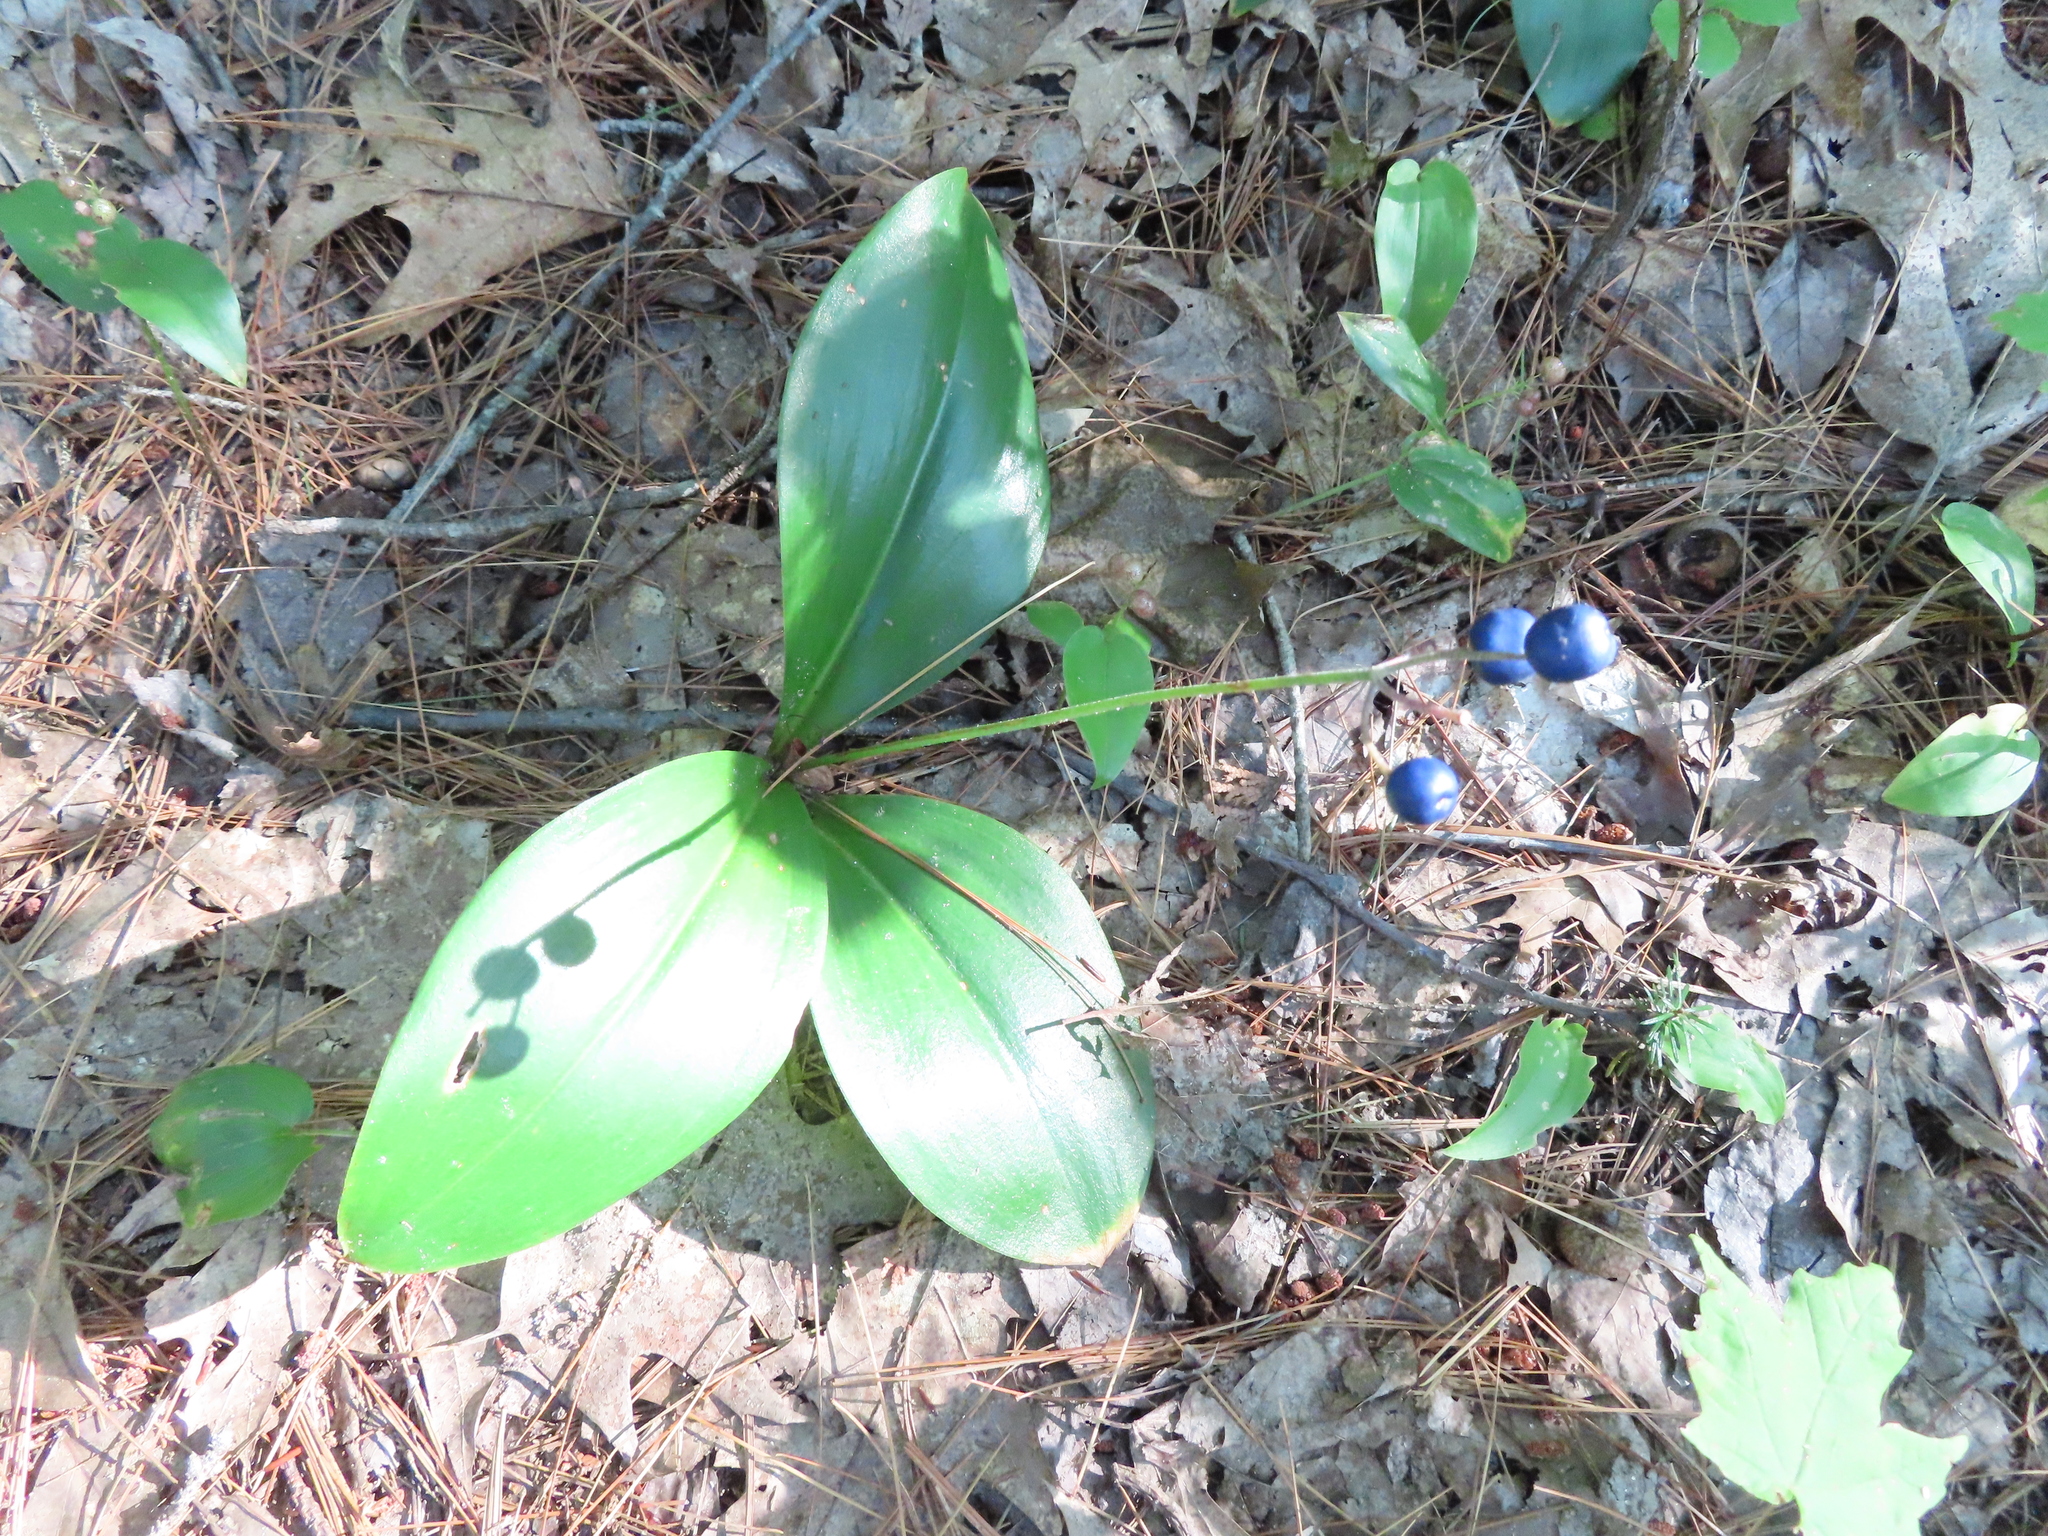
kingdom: Plantae
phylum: Tracheophyta
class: Liliopsida
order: Liliales
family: Liliaceae
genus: Clintonia
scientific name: Clintonia borealis
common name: Yellow clintonia
